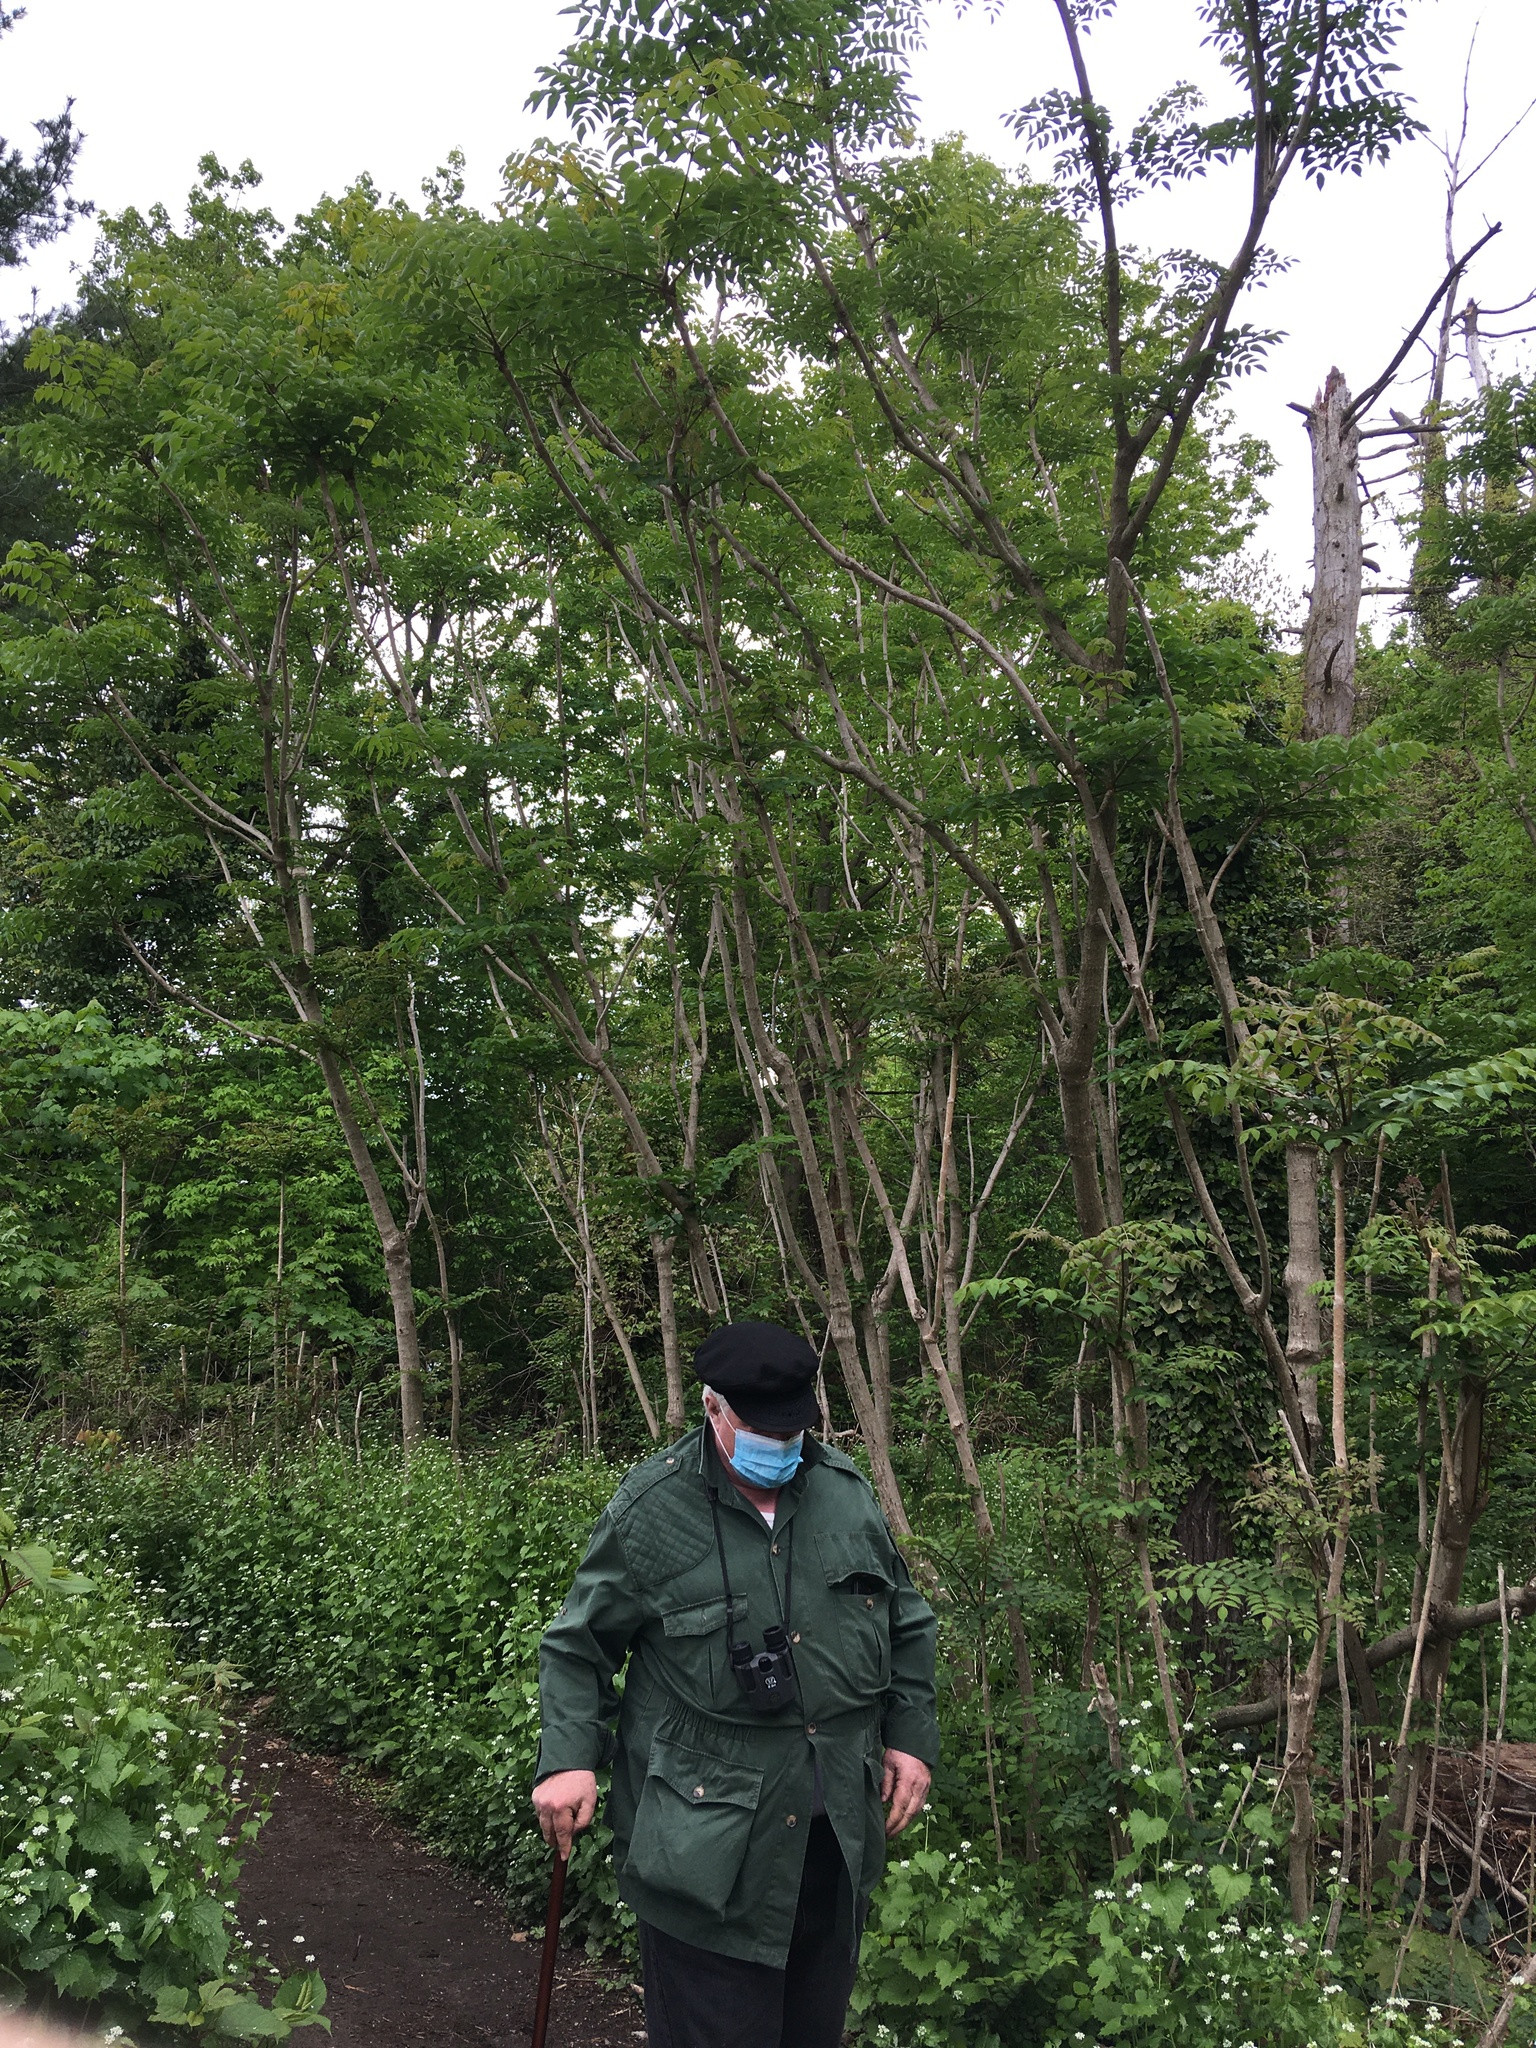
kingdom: Plantae
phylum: Tracheophyta
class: Magnoliopsida
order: Apiales
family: Araliaceae
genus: Aralia
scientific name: Aralia elata
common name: Japanese angelica-tree
